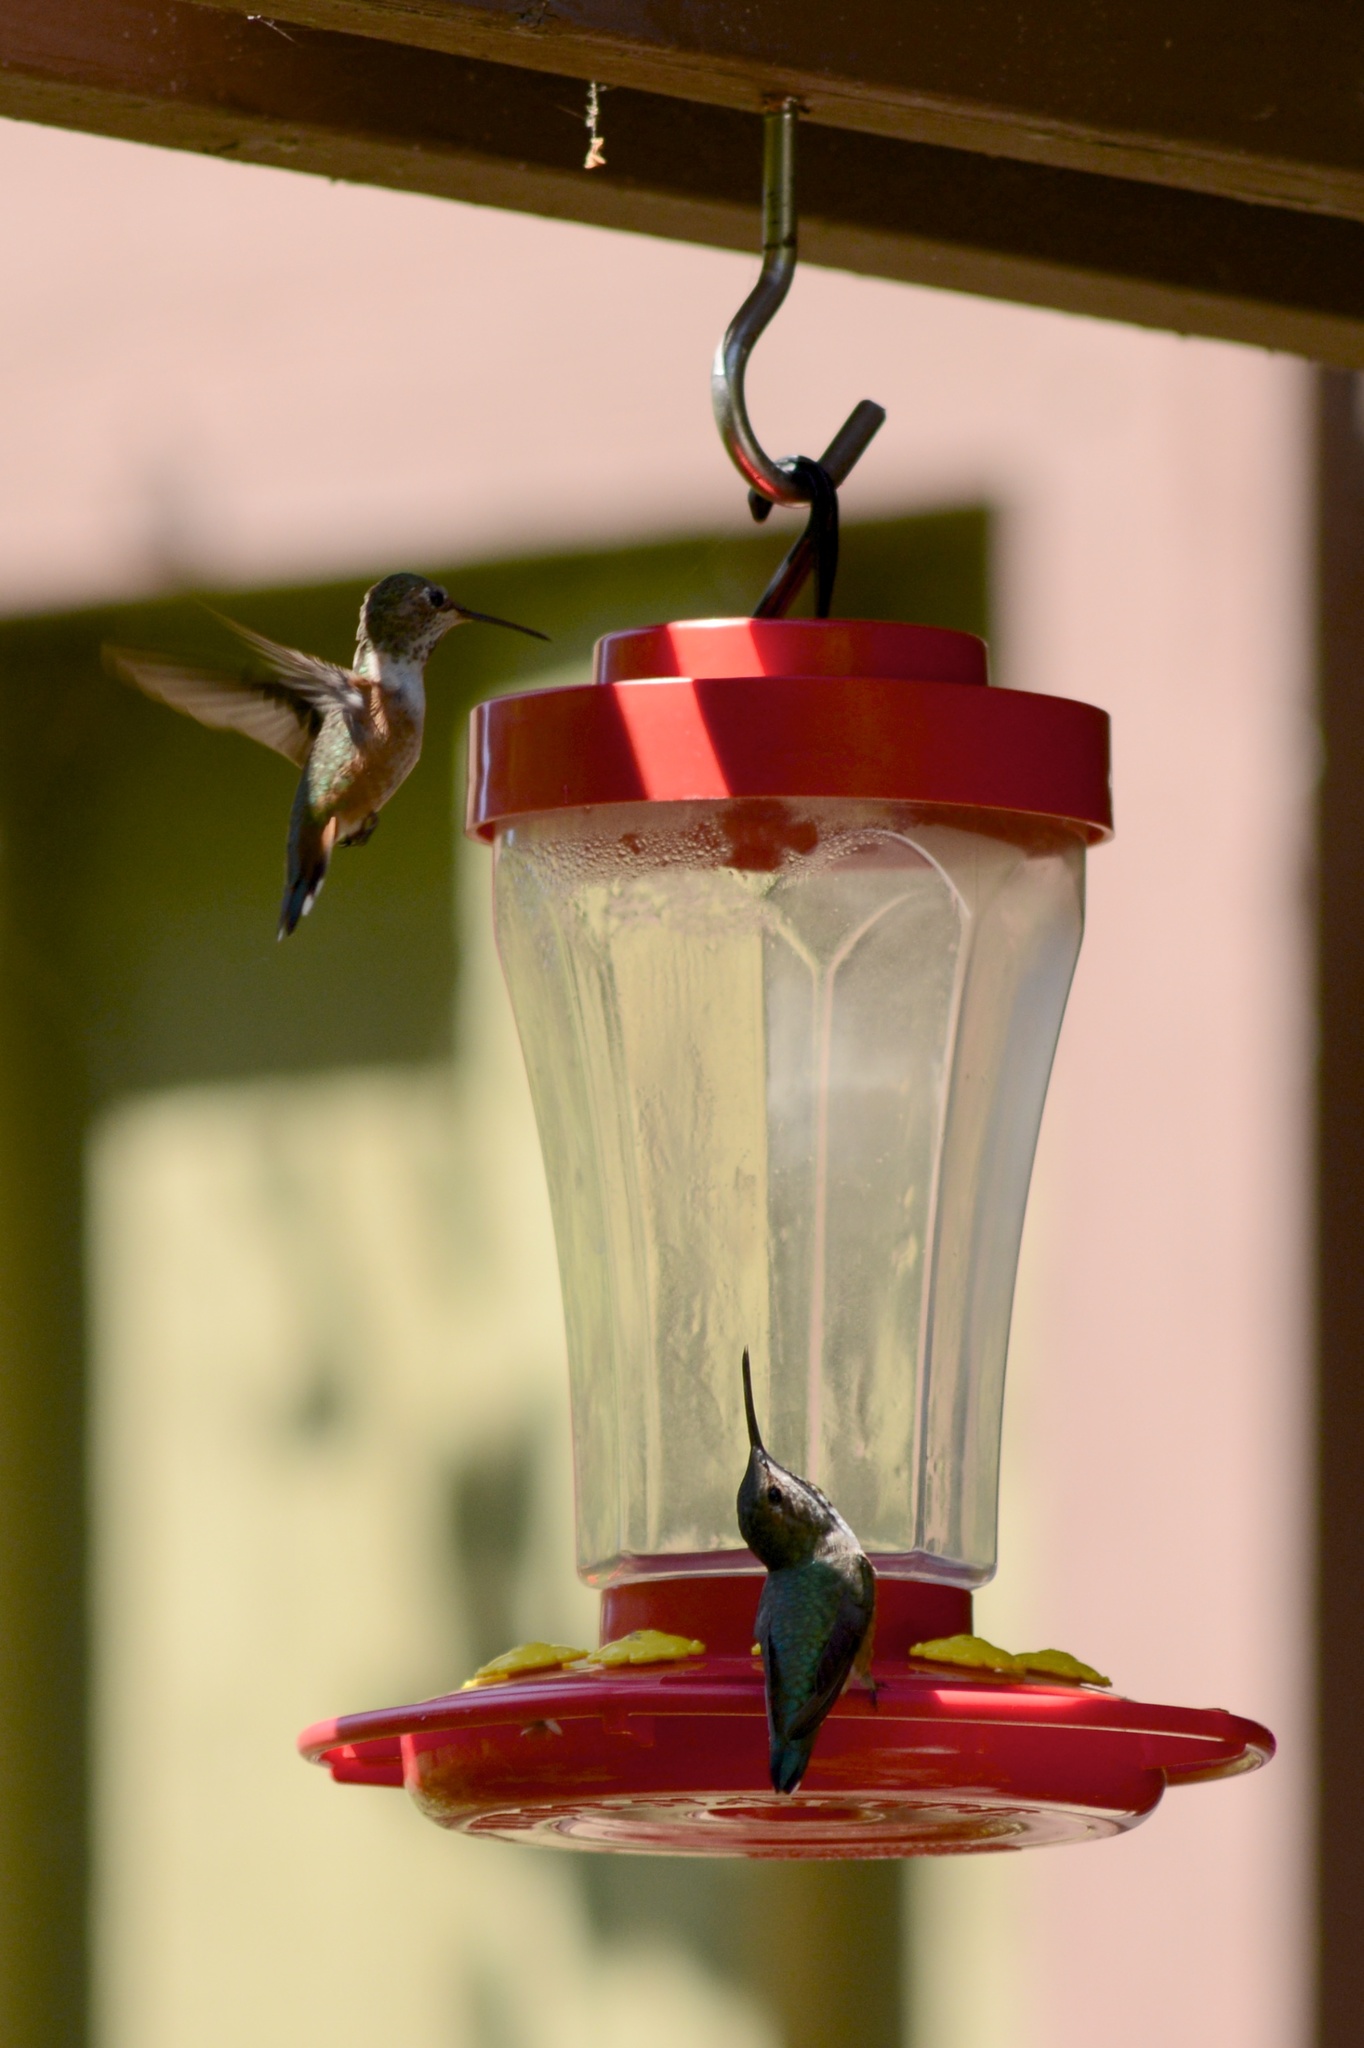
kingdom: Animalia
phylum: Chordata
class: Aves
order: Apodiformes
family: Trochilidae
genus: Selasphorus
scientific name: Selasphorus sasin
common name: Allen's hummingbird
